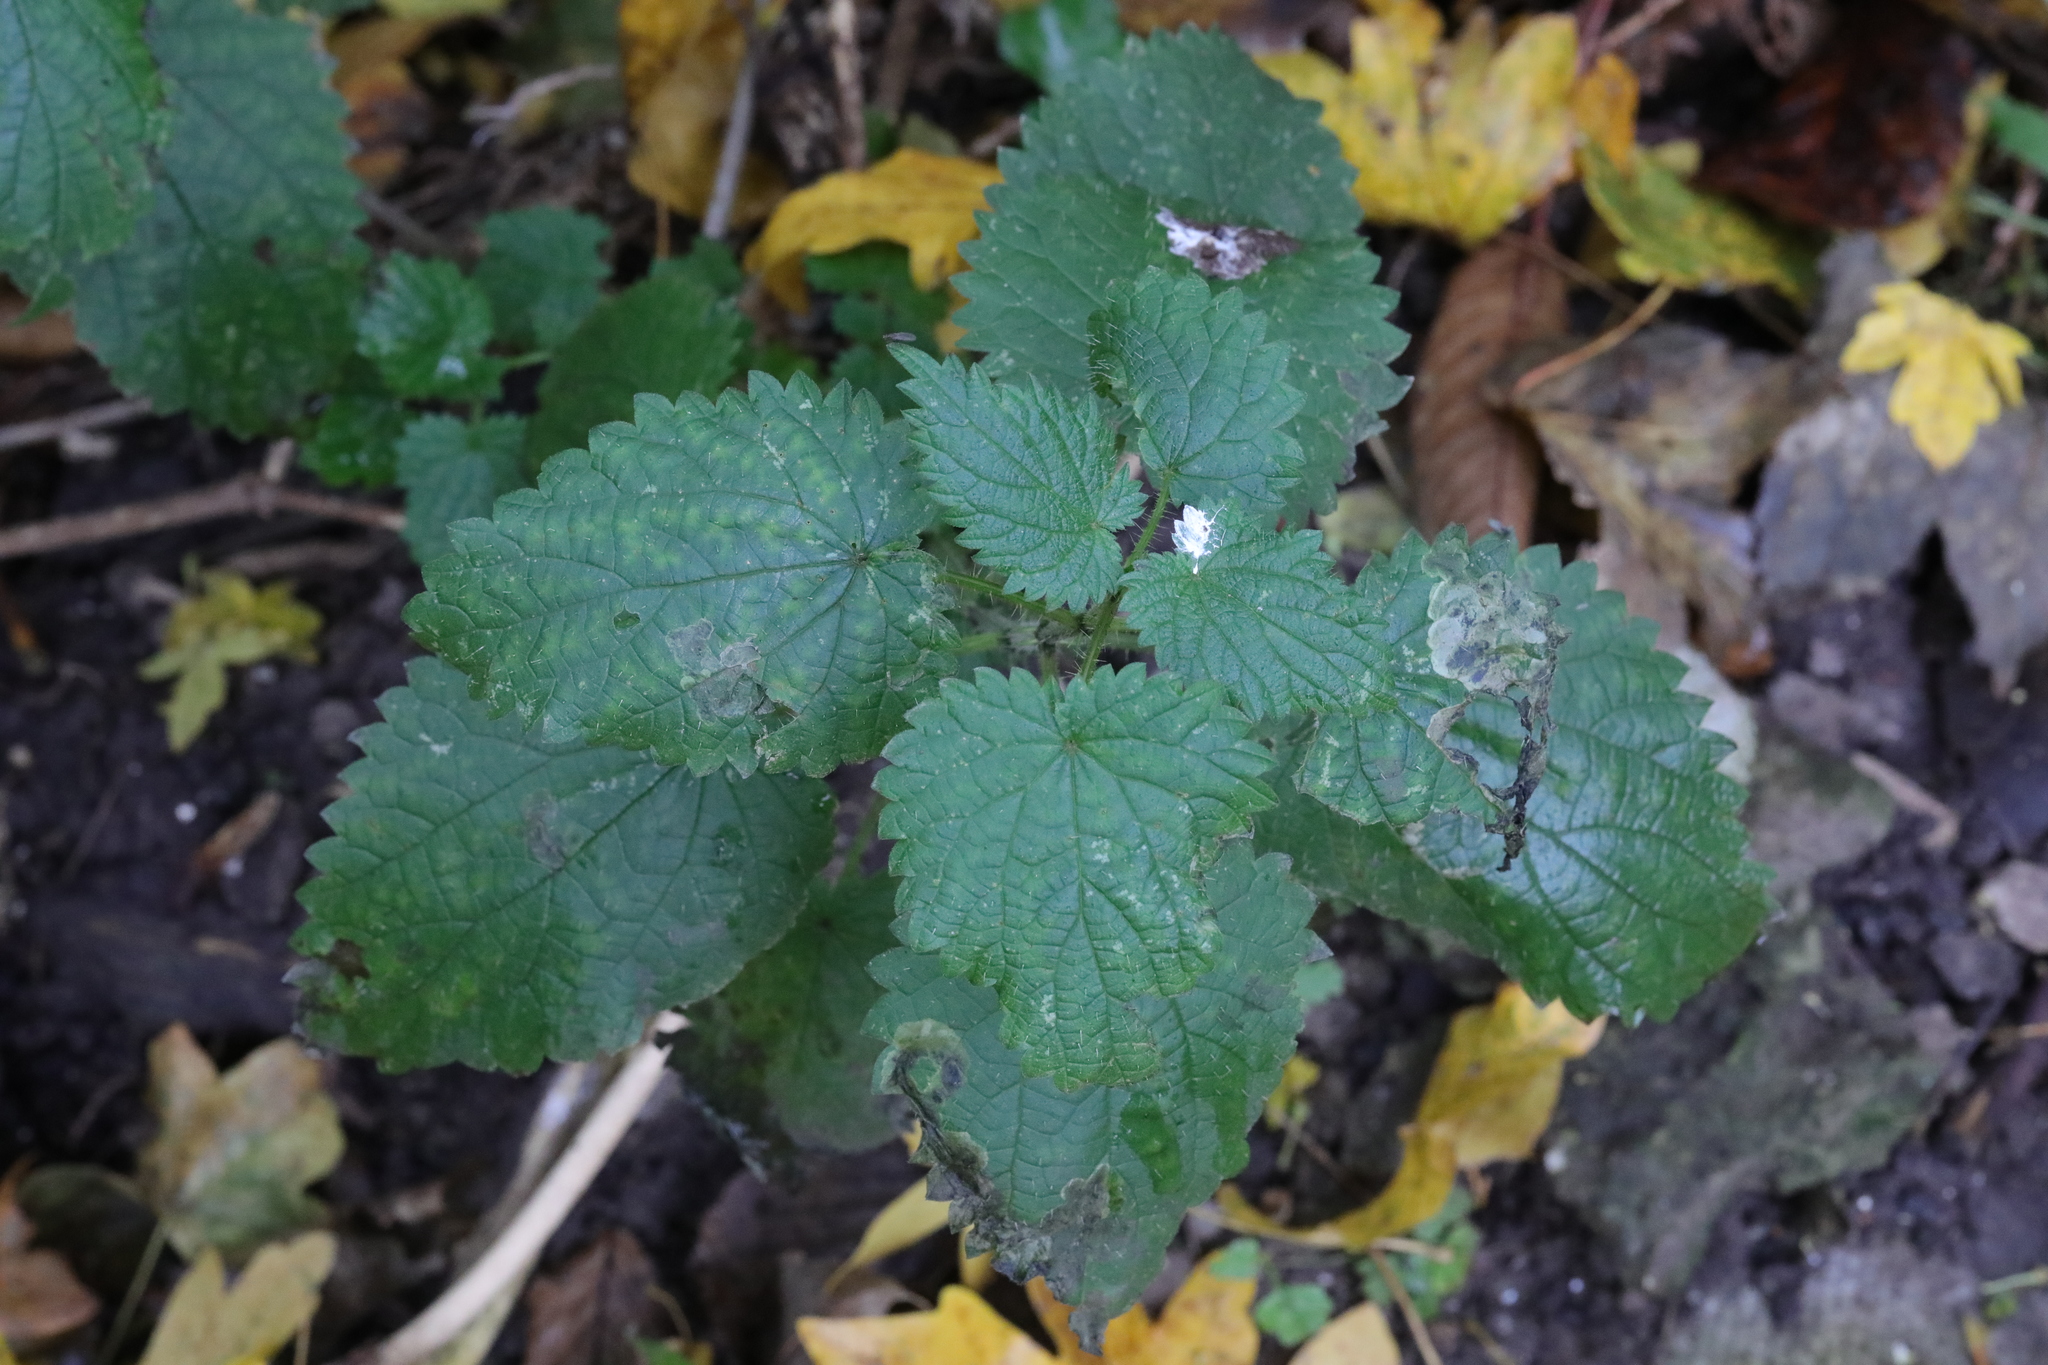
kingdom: Plantae
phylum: Tracheophyta
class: Magnoliopsida
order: Rosales
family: Urticaceae
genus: Urtica
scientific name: Urtica dioica
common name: Common nettle
